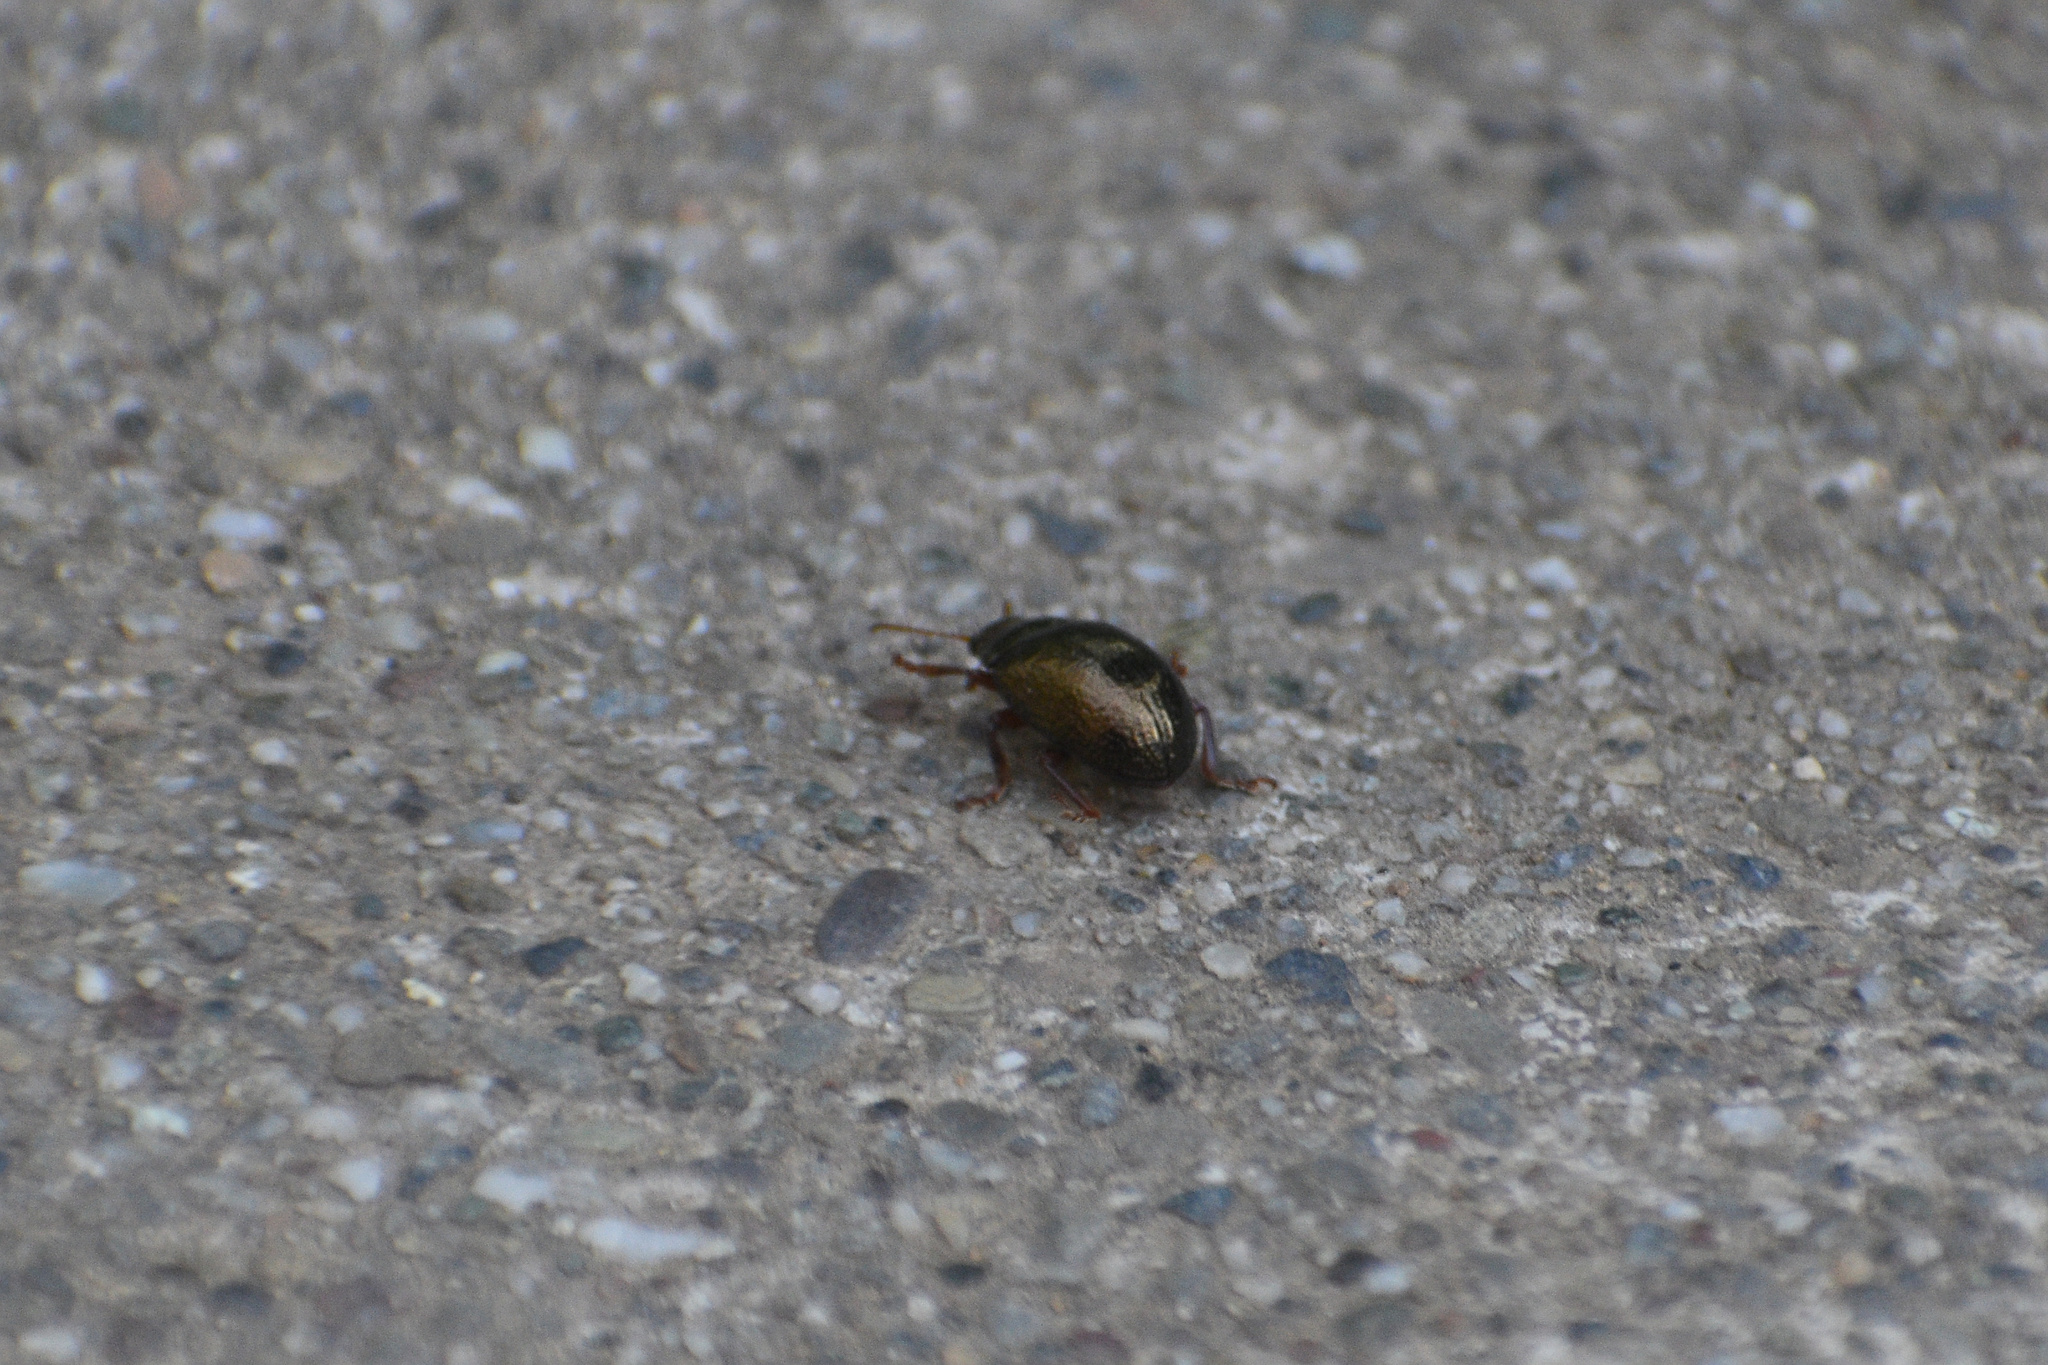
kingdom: Animalia
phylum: Arthropoda
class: Insecta
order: Coleoptera
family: Chrysomelidae
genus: Chrysolina
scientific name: Chrysolina bankii
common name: Leaf beetle
